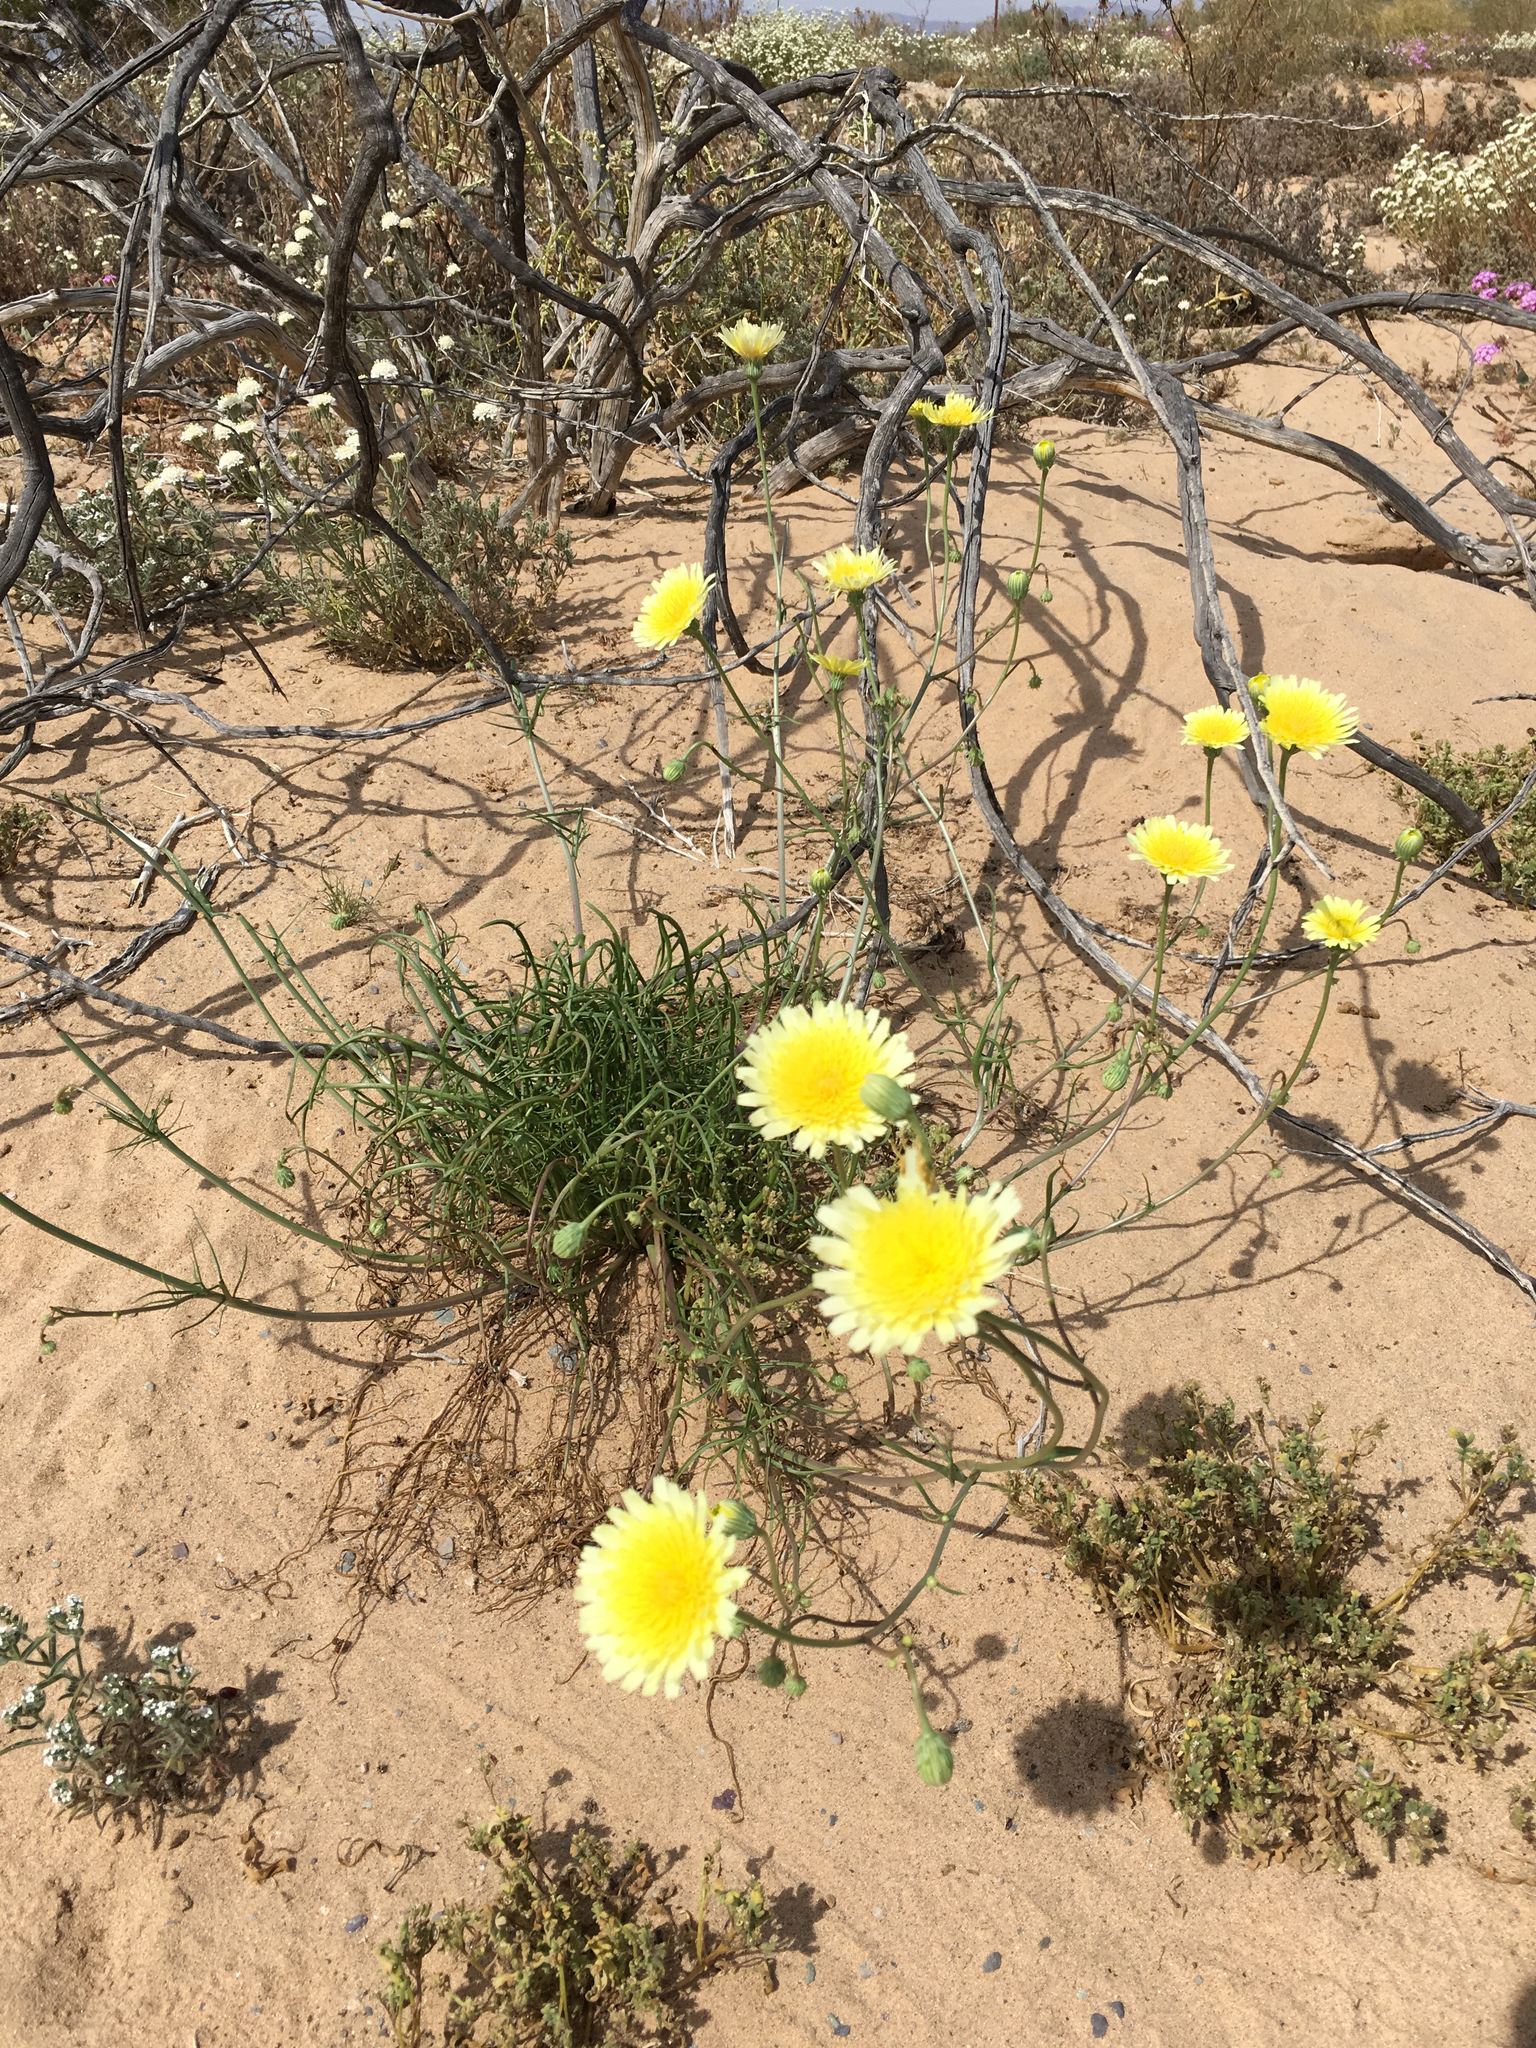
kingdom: Plantae
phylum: Tracheophyta
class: Magnoliopsida
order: Asterales
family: Asteraceae
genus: Malacothrix
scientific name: Malacothrix glabrata
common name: Smooth desert-dandelion
